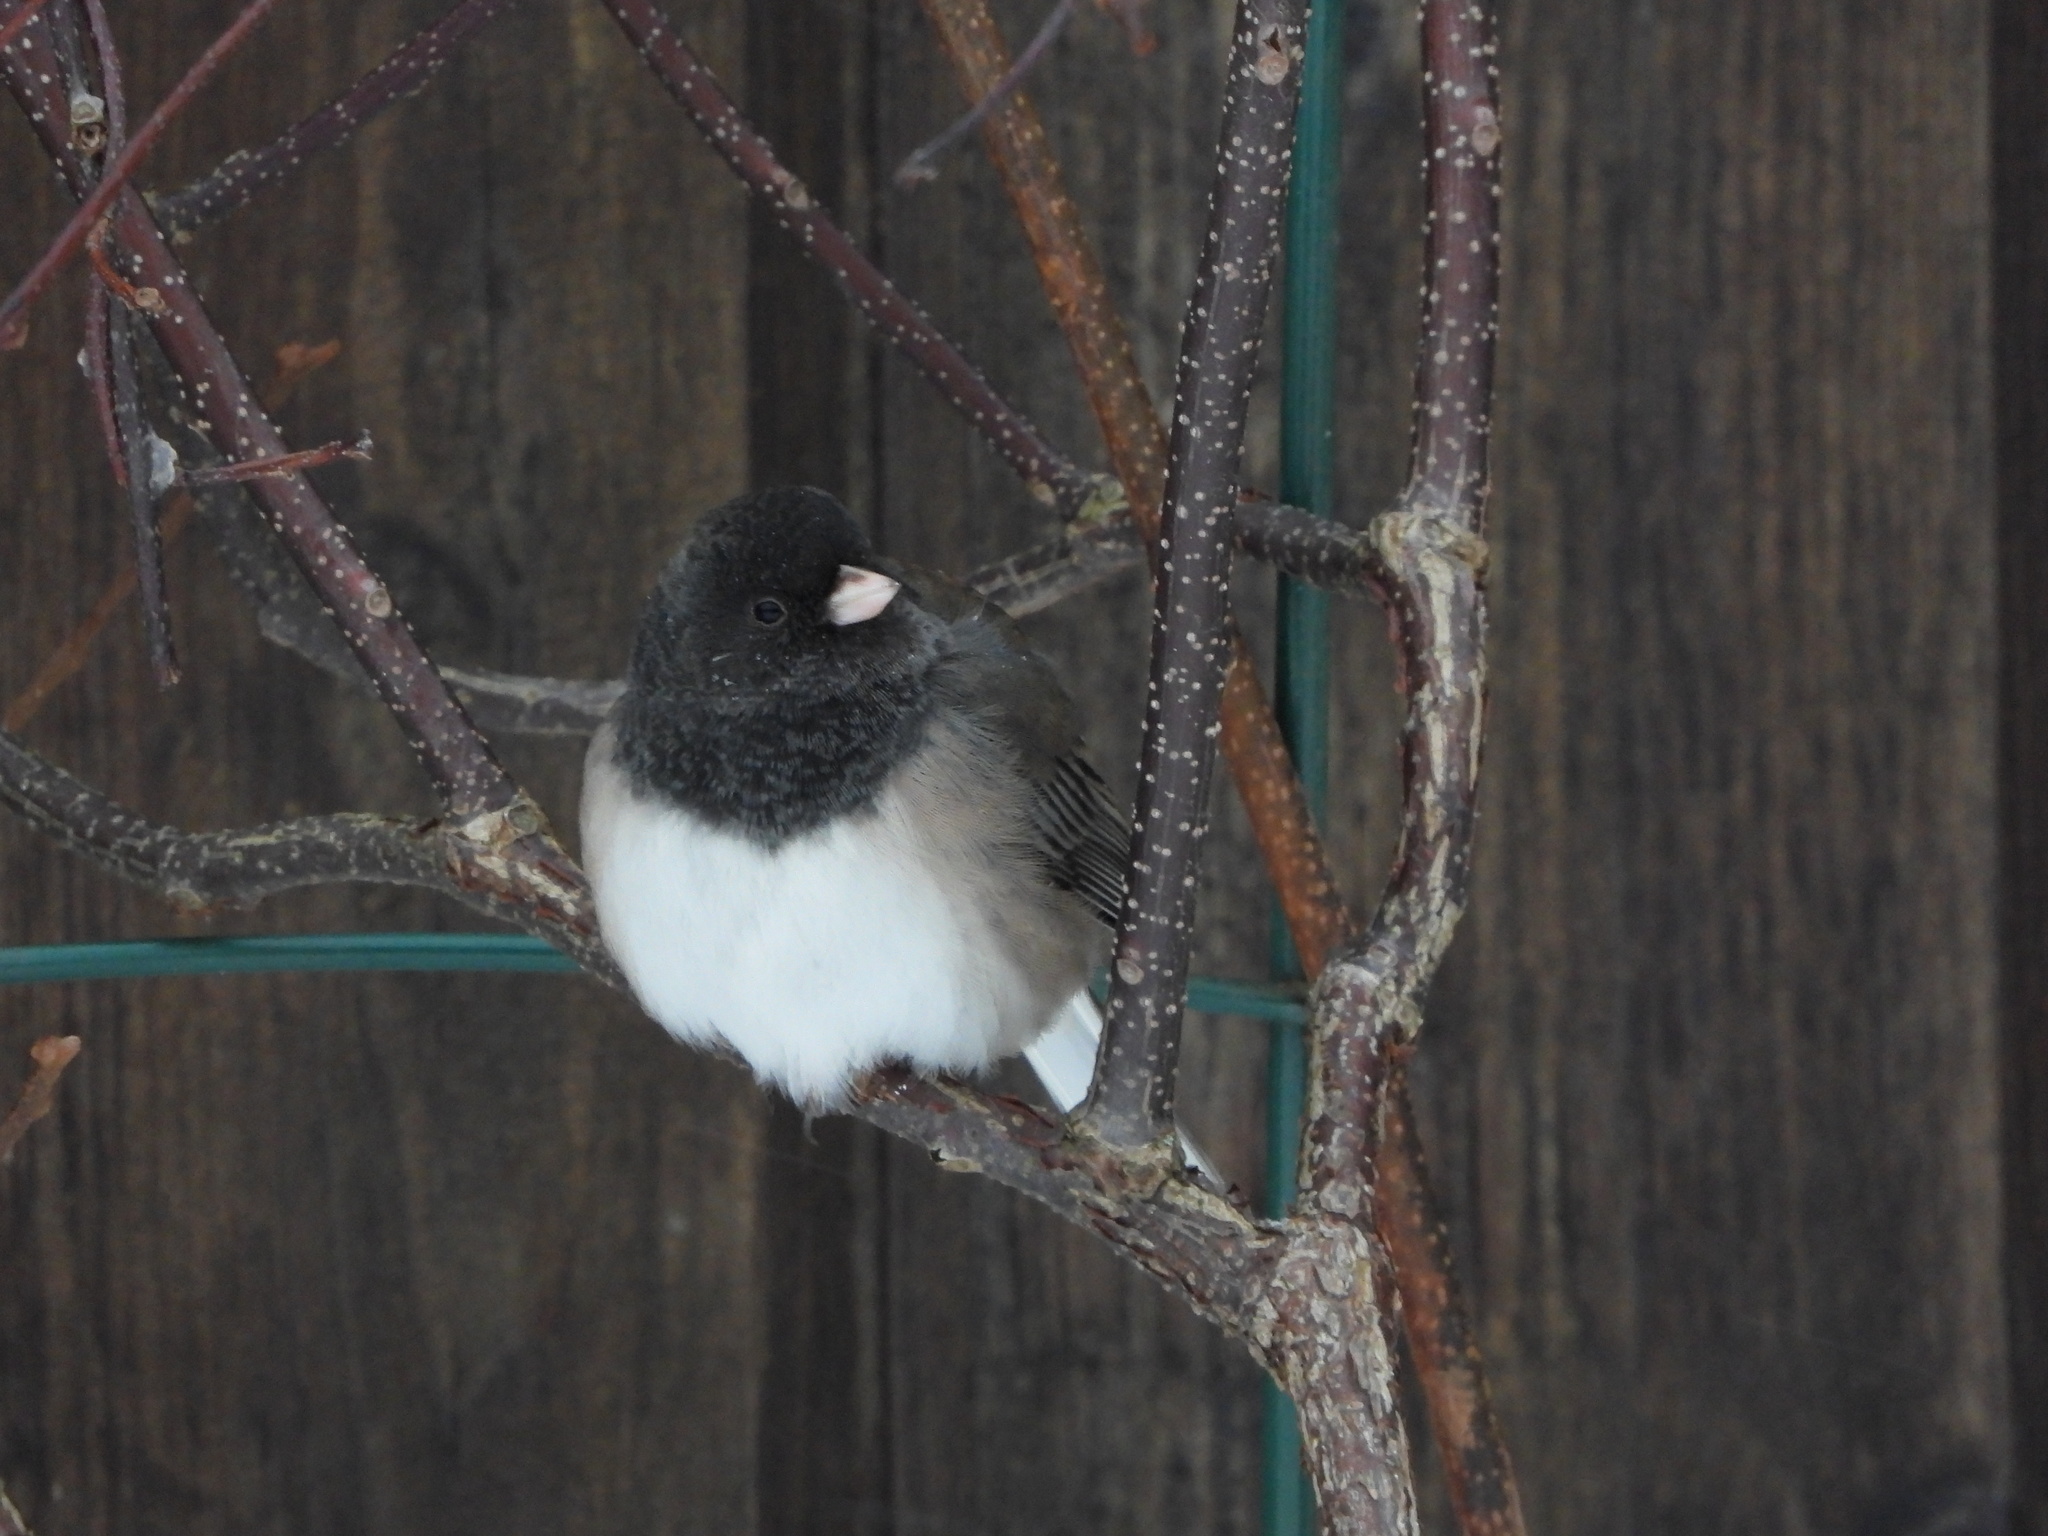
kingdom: Animalia
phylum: Chordata
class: Aves
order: Passeriformes
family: Passerellidae
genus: Junco
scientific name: Junco hyemalis
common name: Dark-eyed junco
